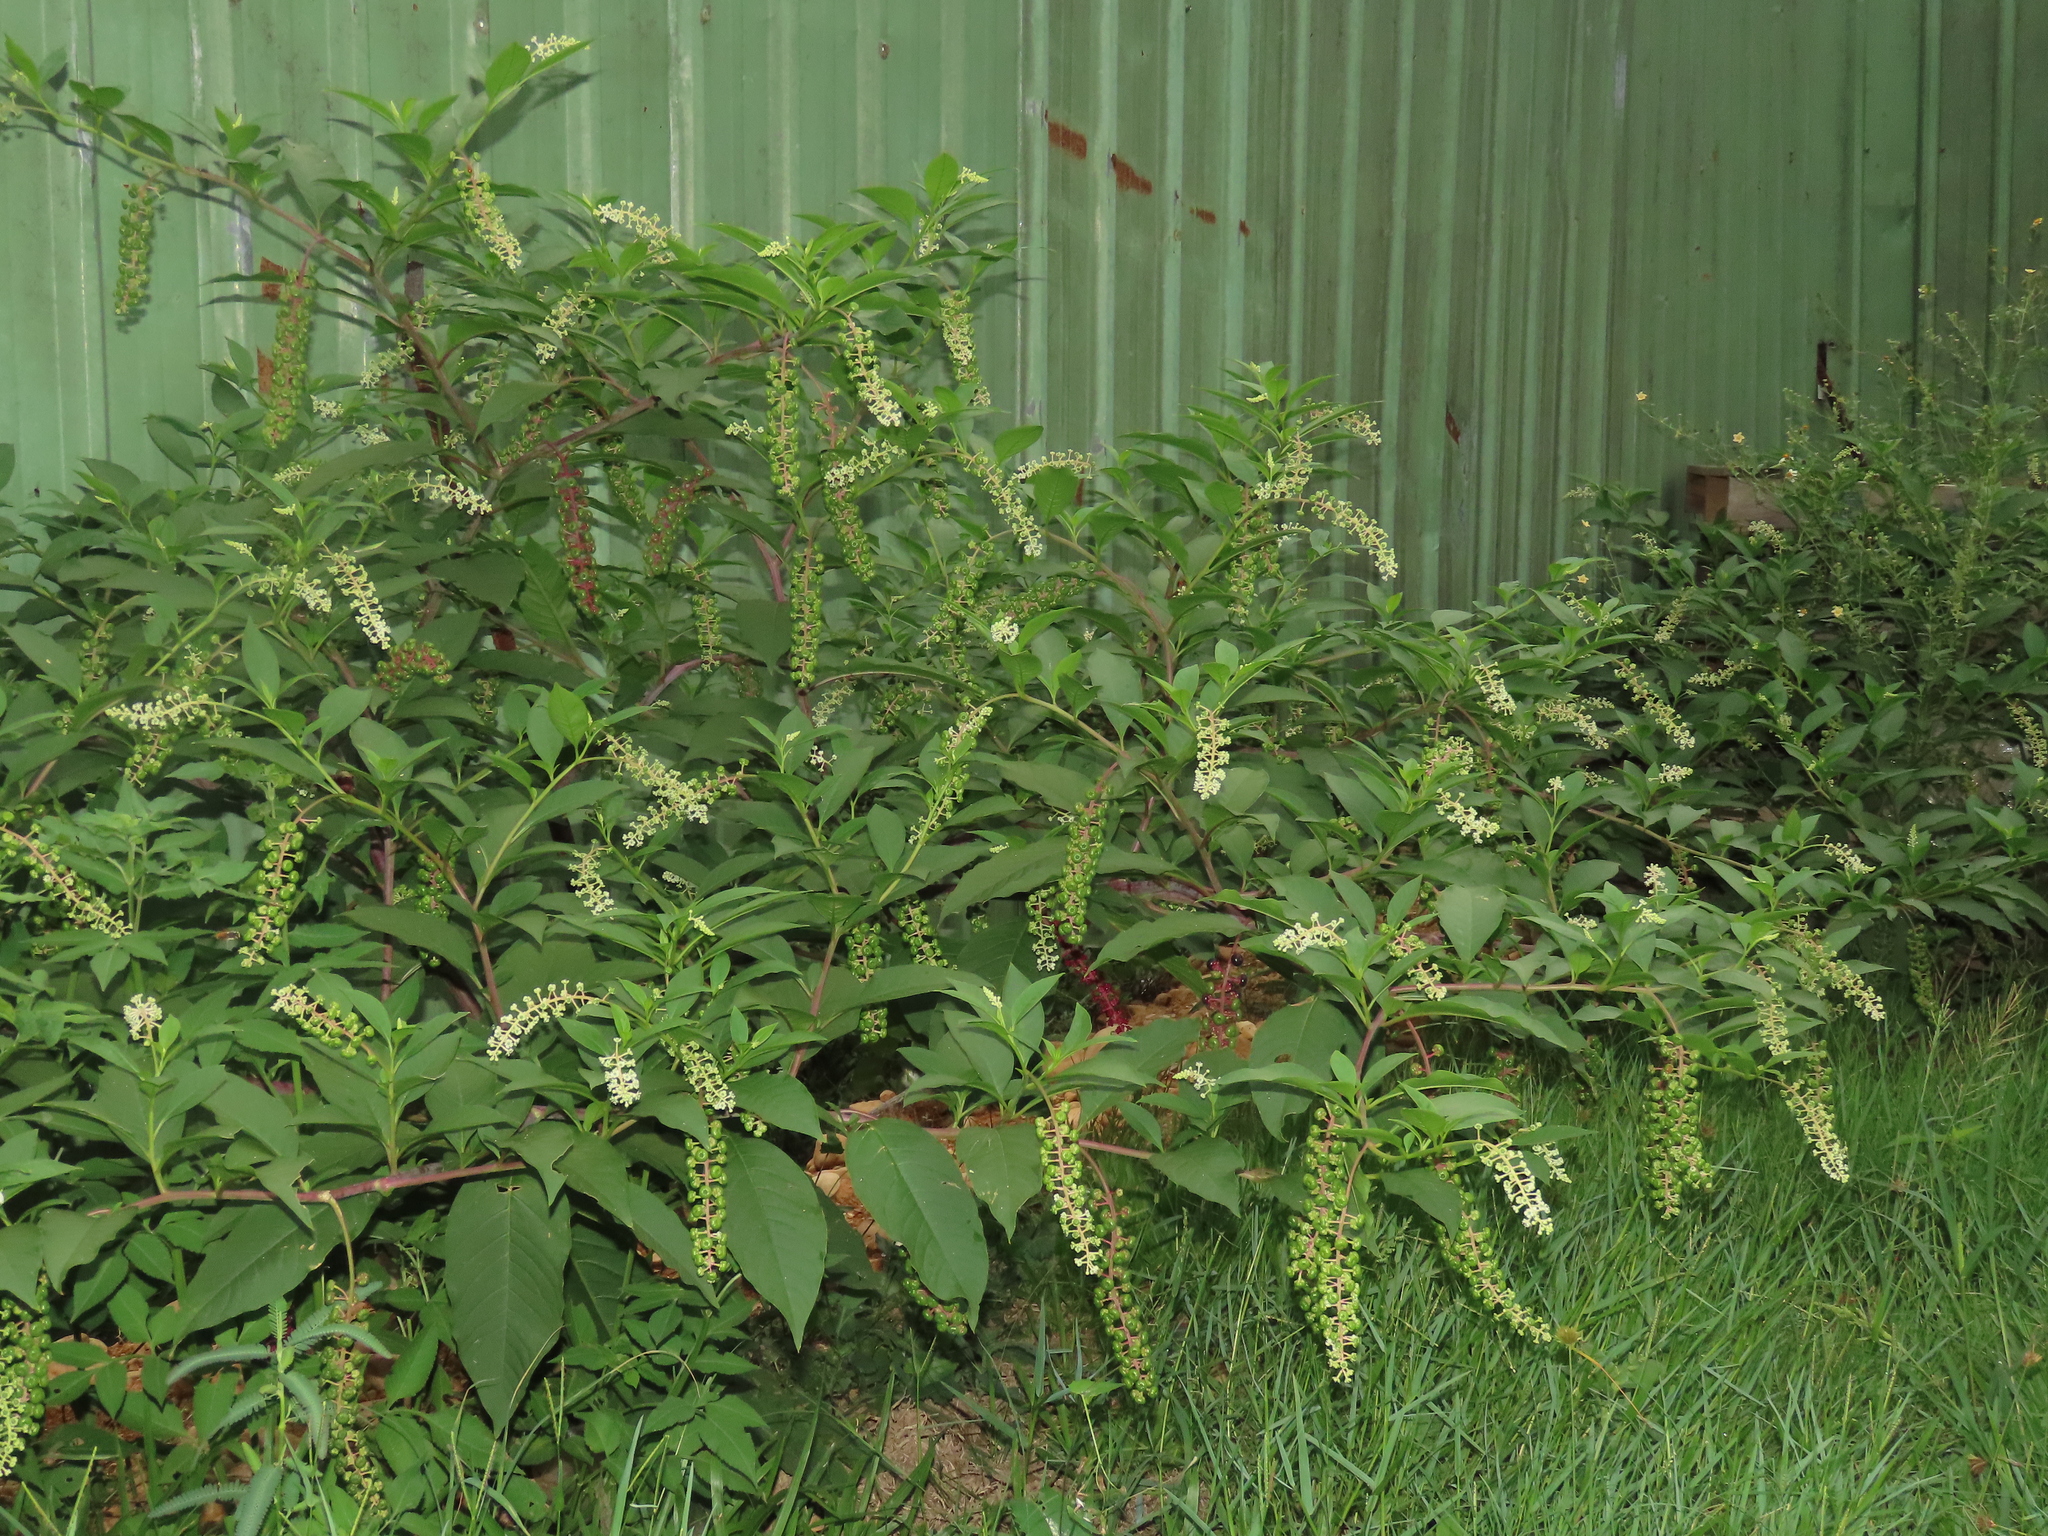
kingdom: Plantae
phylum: Tracheophyta
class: Magnoliopsida
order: Caryophyllales
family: Phytolaccaceae
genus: Phytolacca
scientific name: Phytolacca americana
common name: American pokeweed
